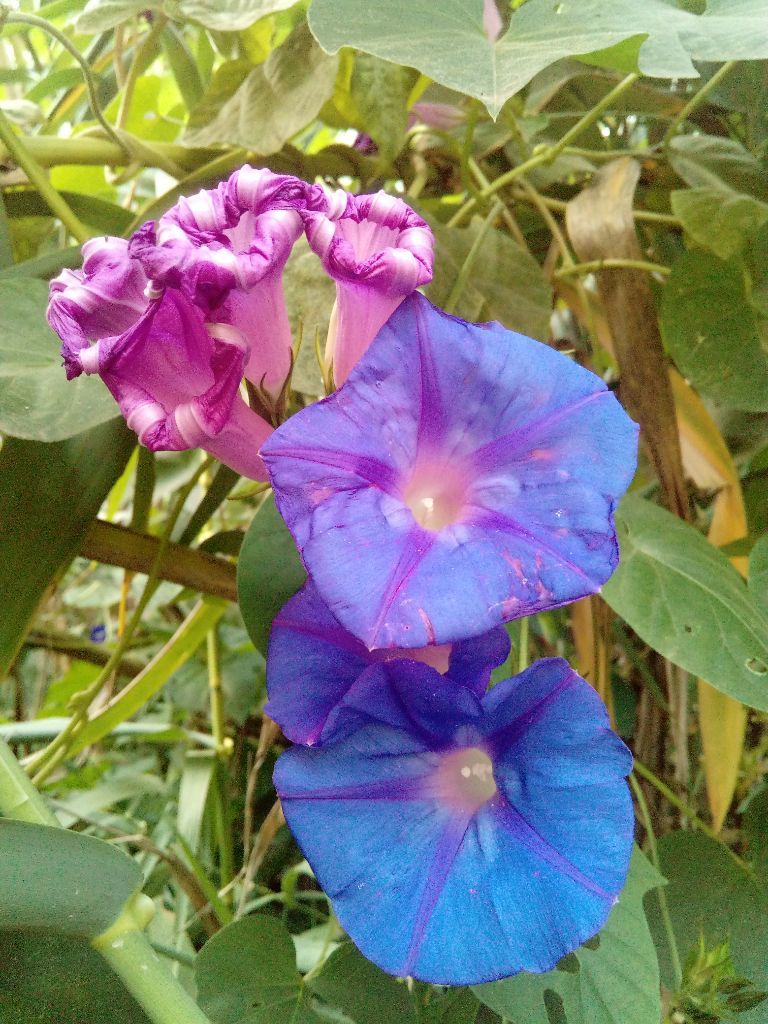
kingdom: Plantae
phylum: Tracheophyta
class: Magnoliopsida
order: Solanales
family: Convolvulaceae
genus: Ipomoea
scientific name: Ipomoea indica
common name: Blue dawnflower
